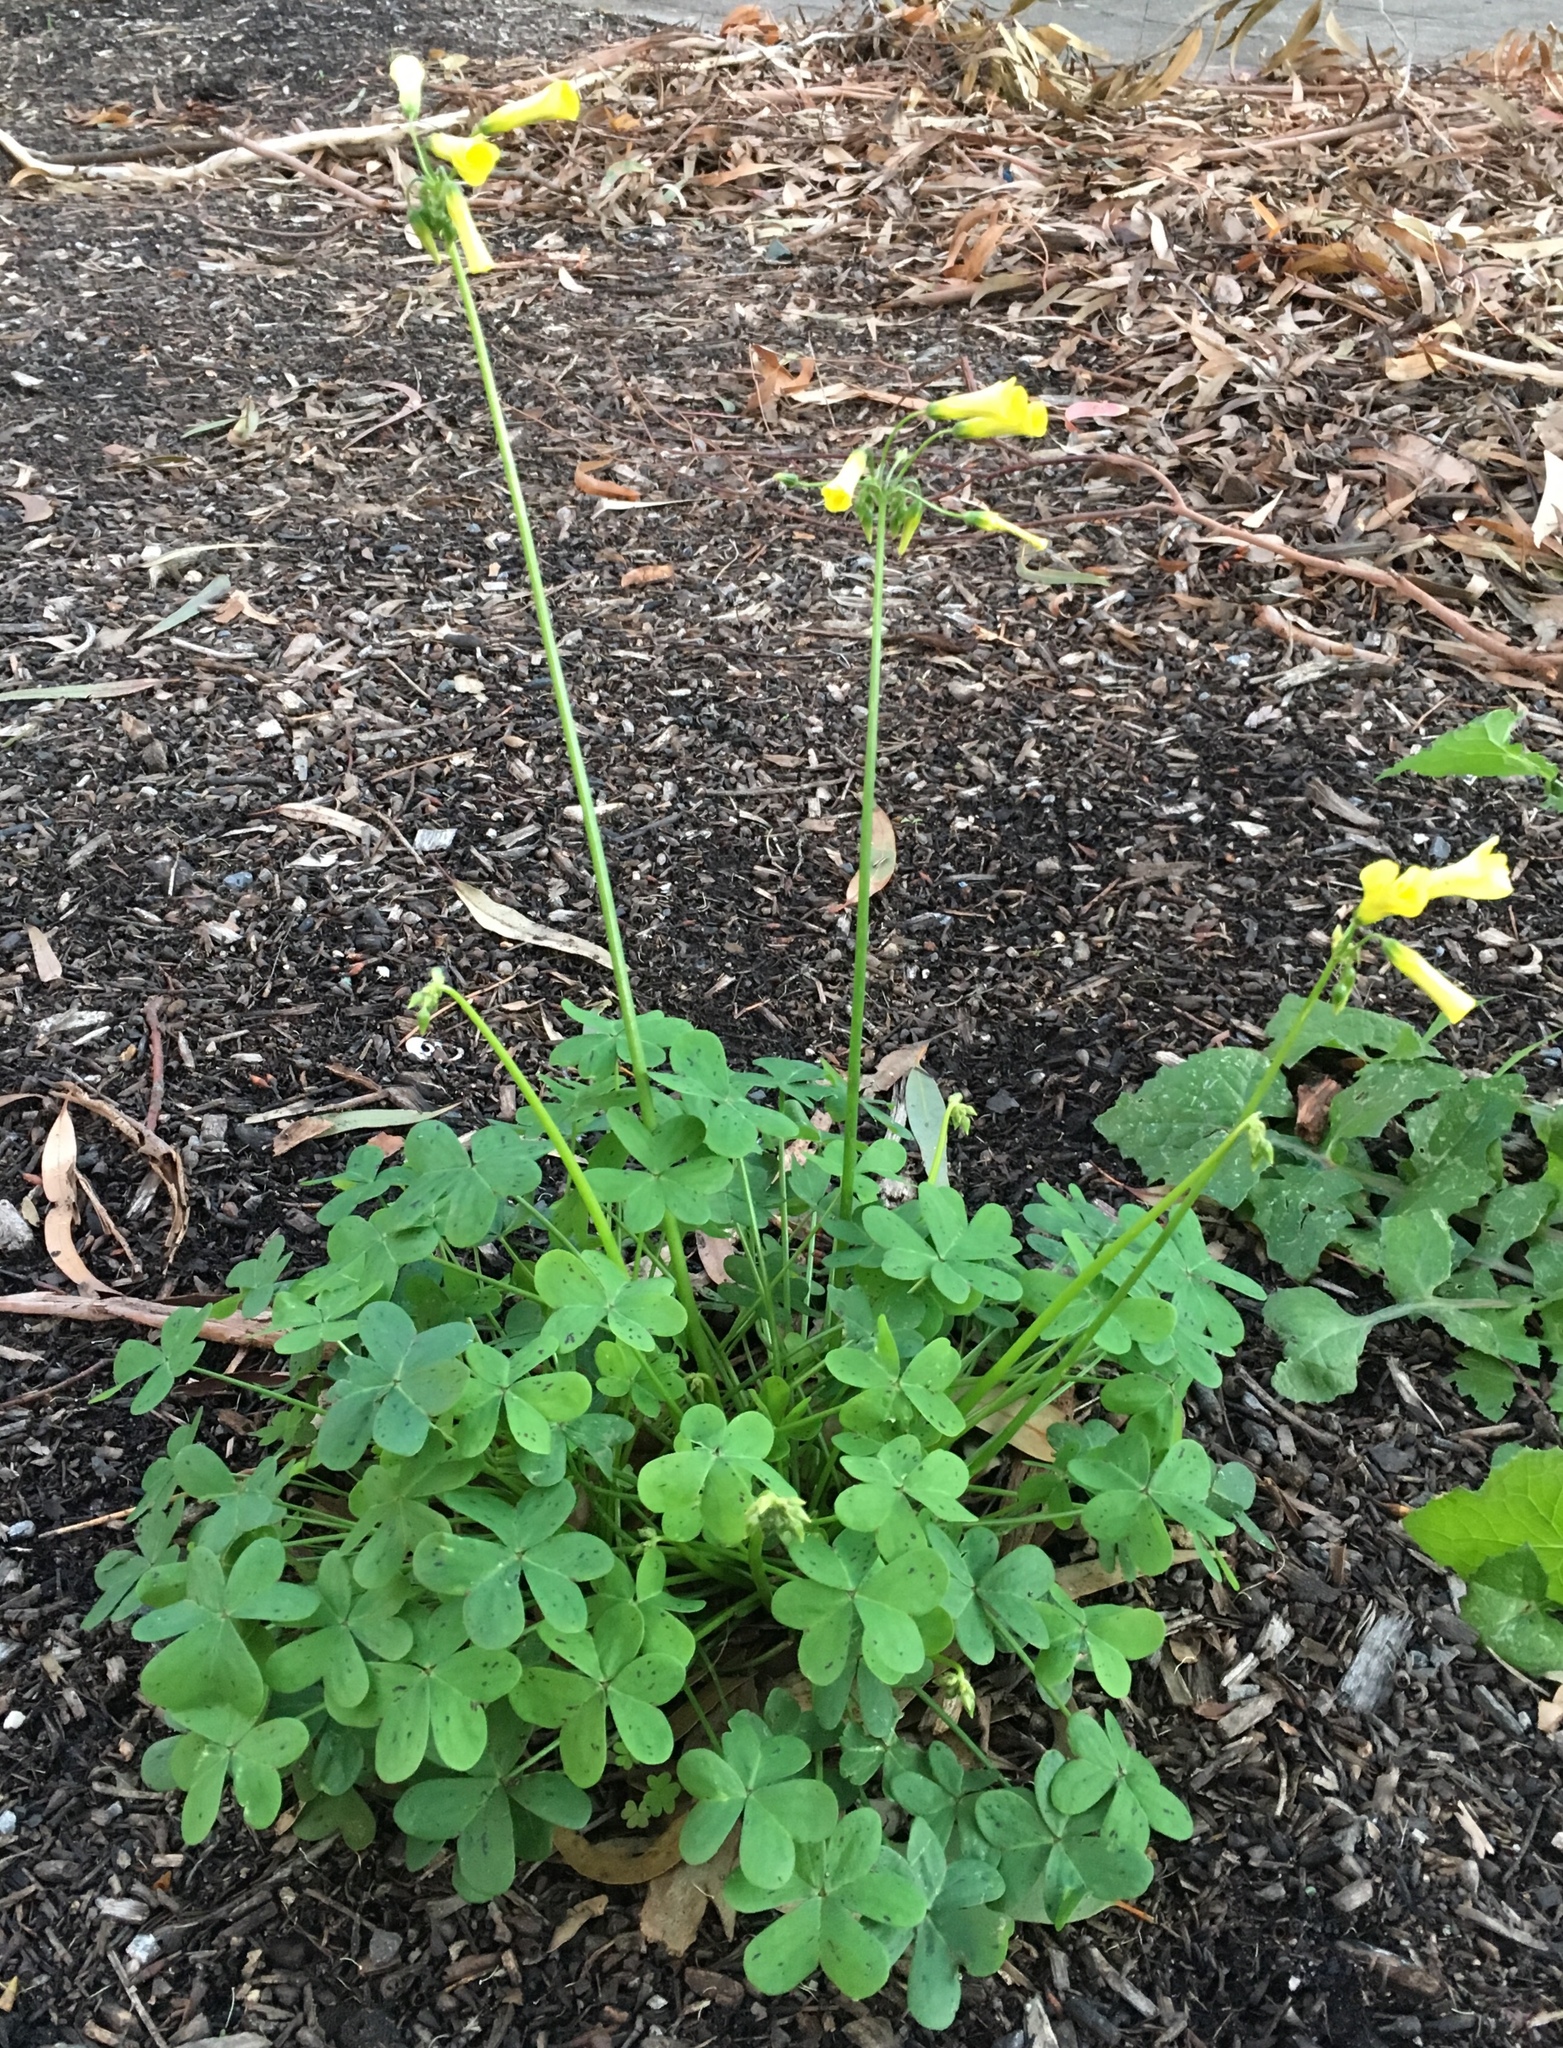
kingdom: Plantae
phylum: Tracheophyta
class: Magnoliopsida
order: Oxalidales
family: Oxalidaceae
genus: Oxalis
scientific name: Oxalis pes-caprae
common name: Bermuda-buttercup
